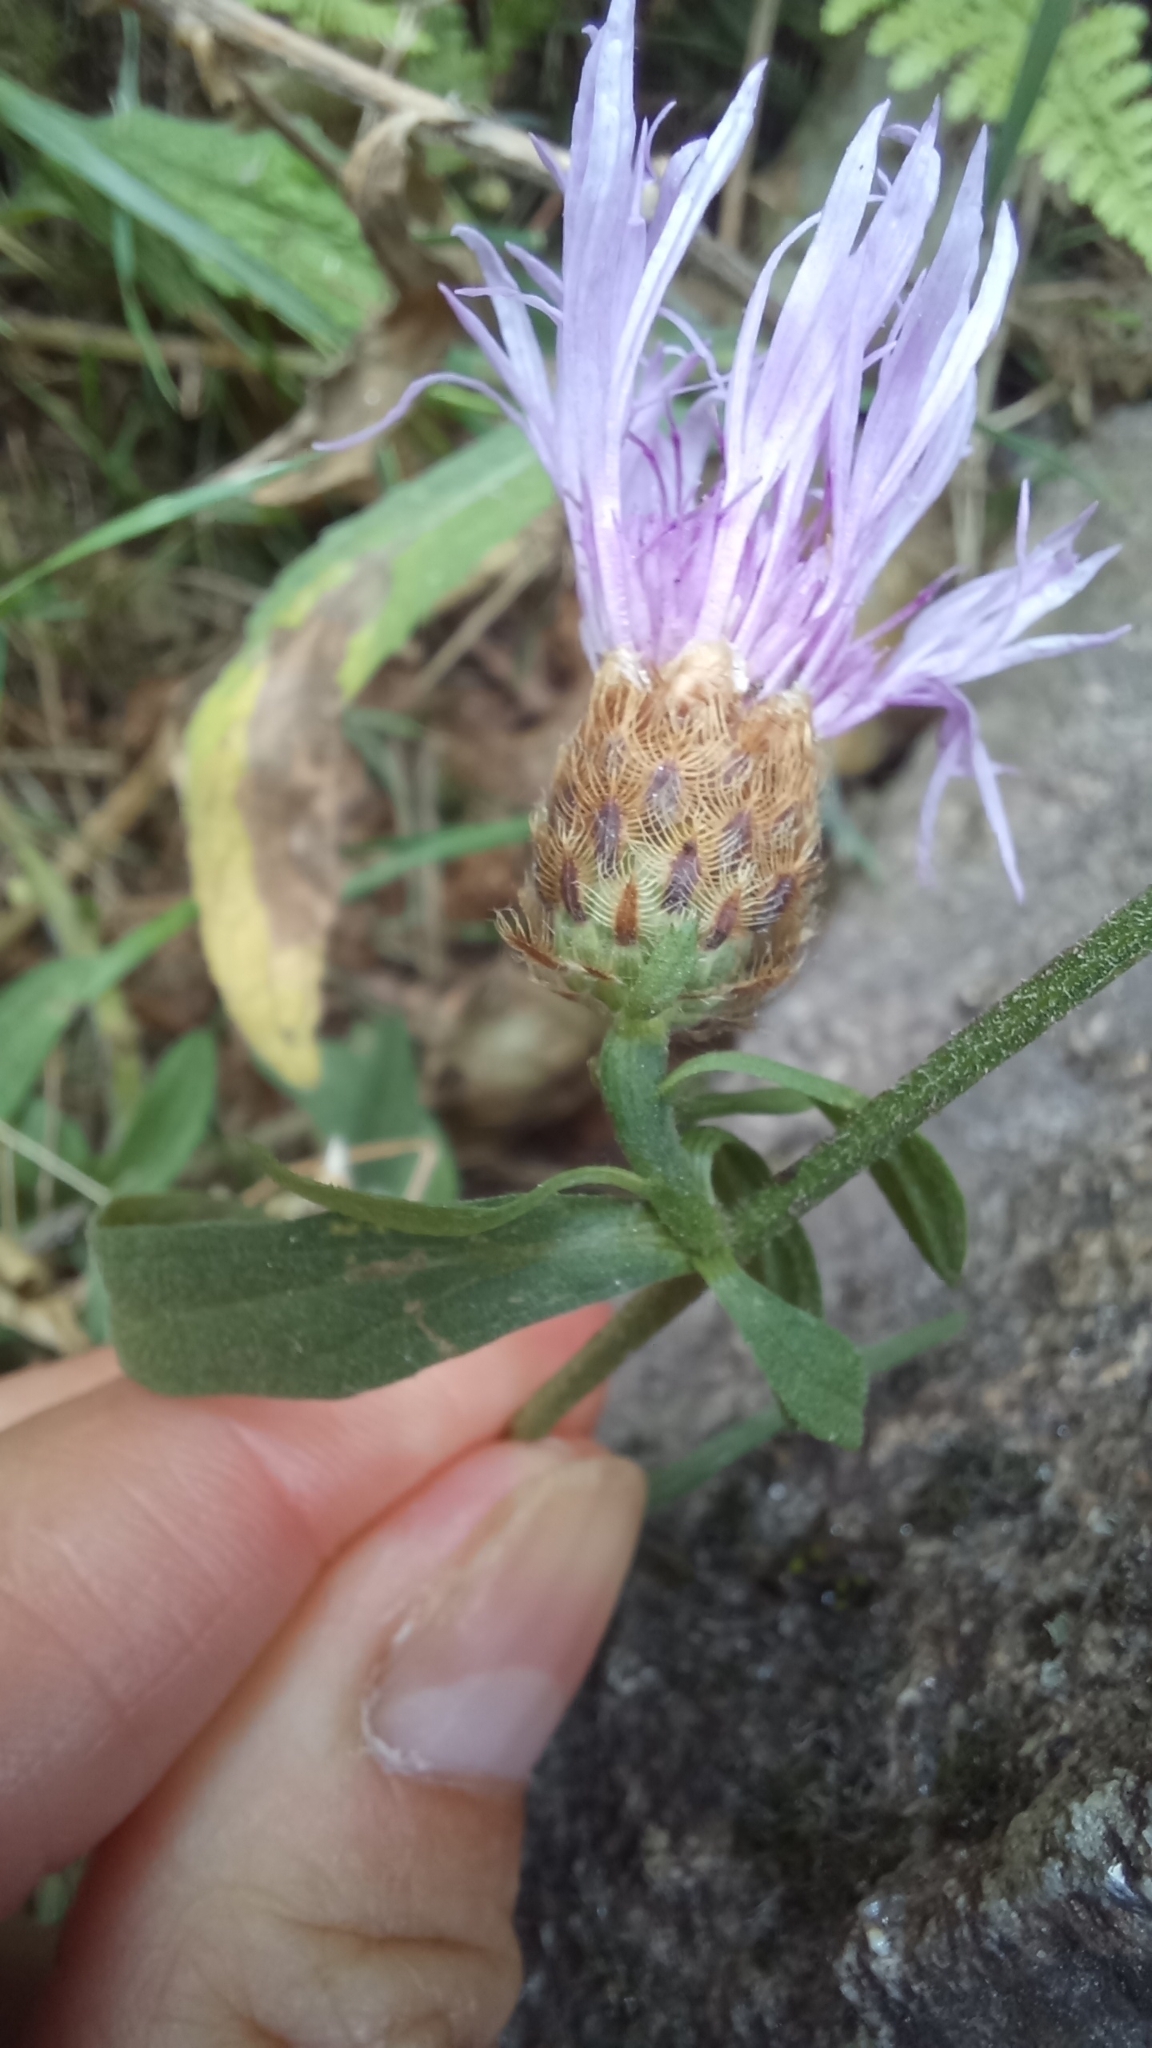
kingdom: Plantae
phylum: Tracheophyta
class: Magnoliopsida
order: Asterales
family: Asteraceae
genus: Centaurea
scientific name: Centaurea nigra
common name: Lesser knapweed
